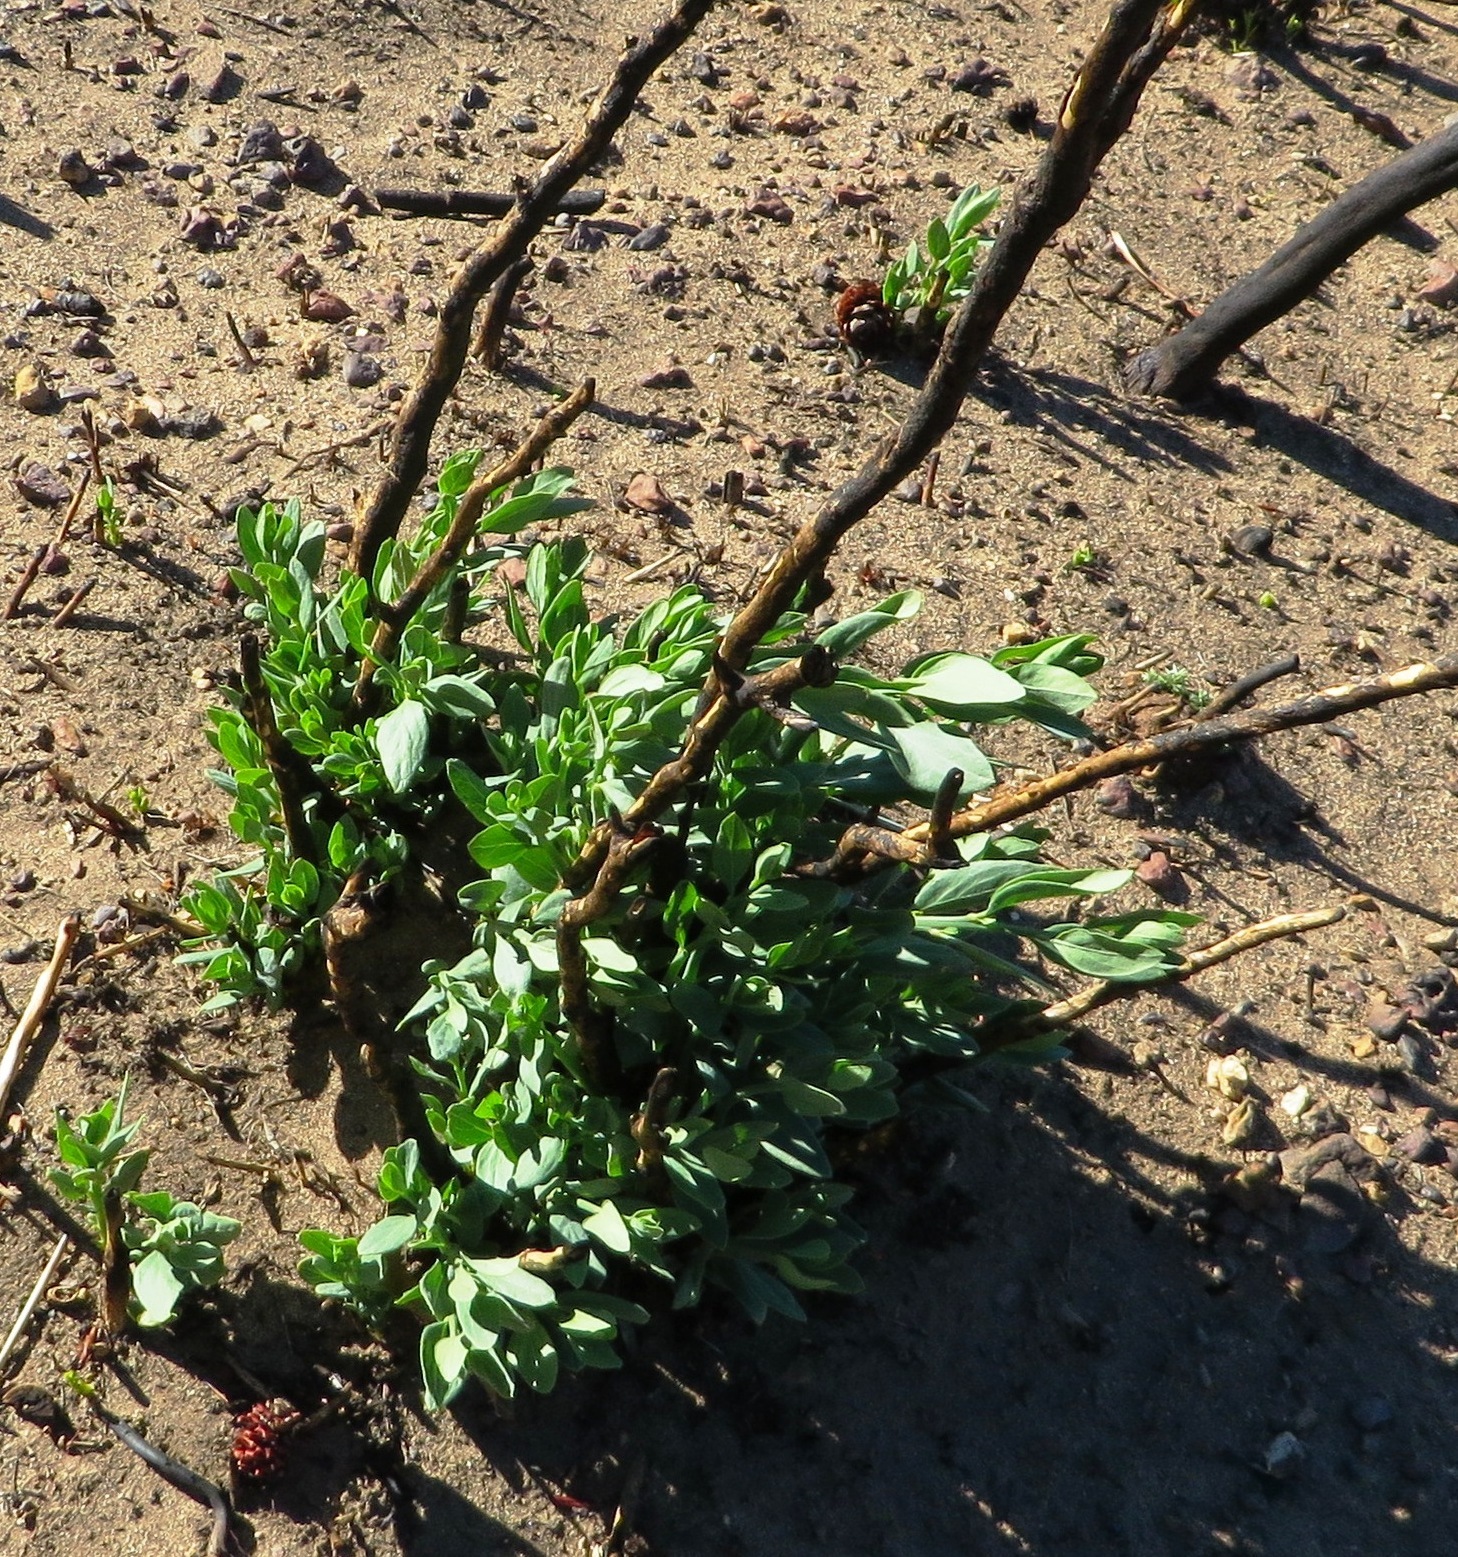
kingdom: Plantae
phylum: Tracheophyta
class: Magnoliopsida
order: Solanales
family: Montiniaceae
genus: Montinia
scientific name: Montinia caryophyllacea
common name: Wild clove-bush
